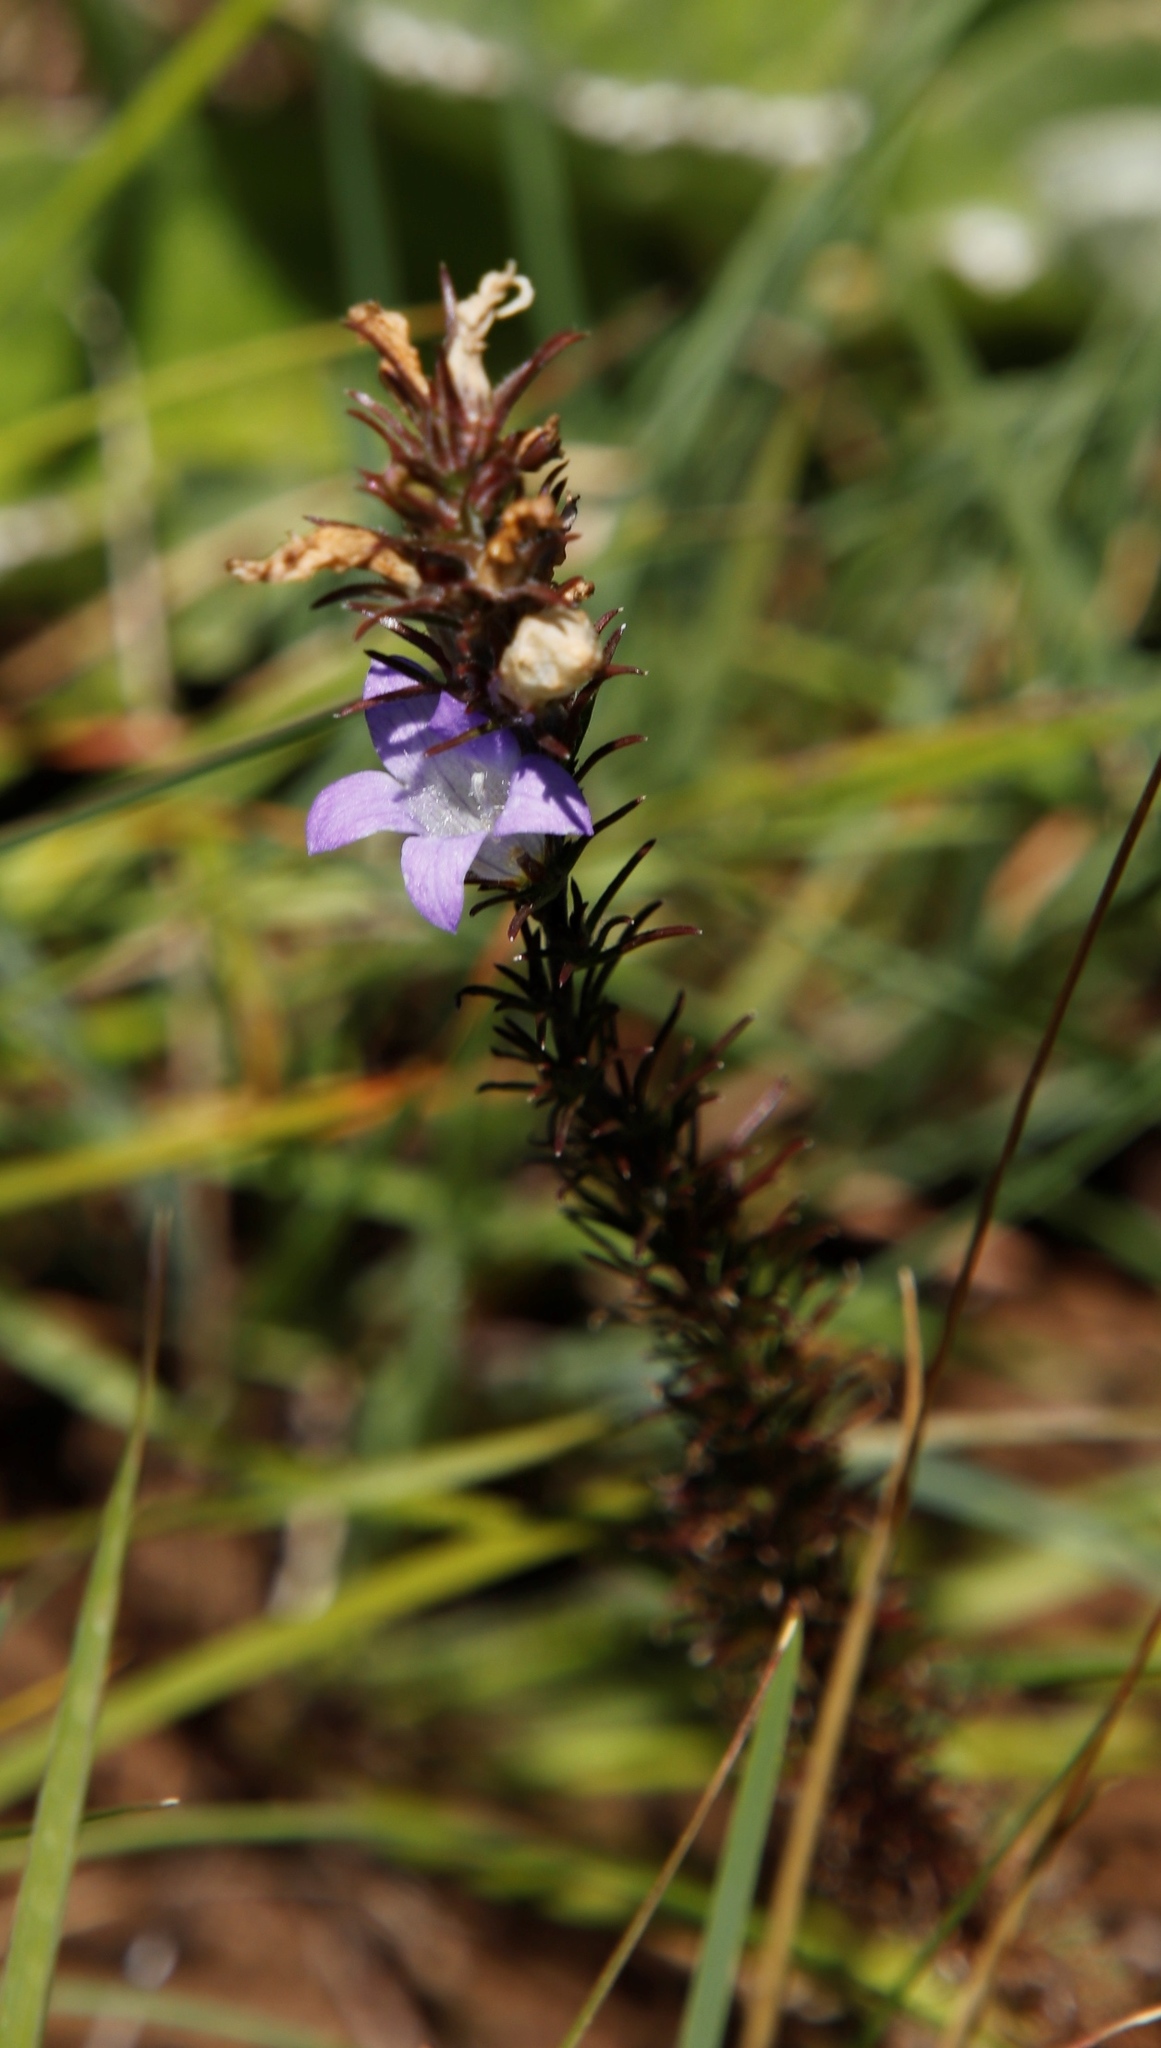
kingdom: Plantae
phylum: Tracheophyta
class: Magnoliopsida
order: Asterales
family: Campanulaceae
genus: Wahlenbergia
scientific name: Wahlenbergia fasciculata
